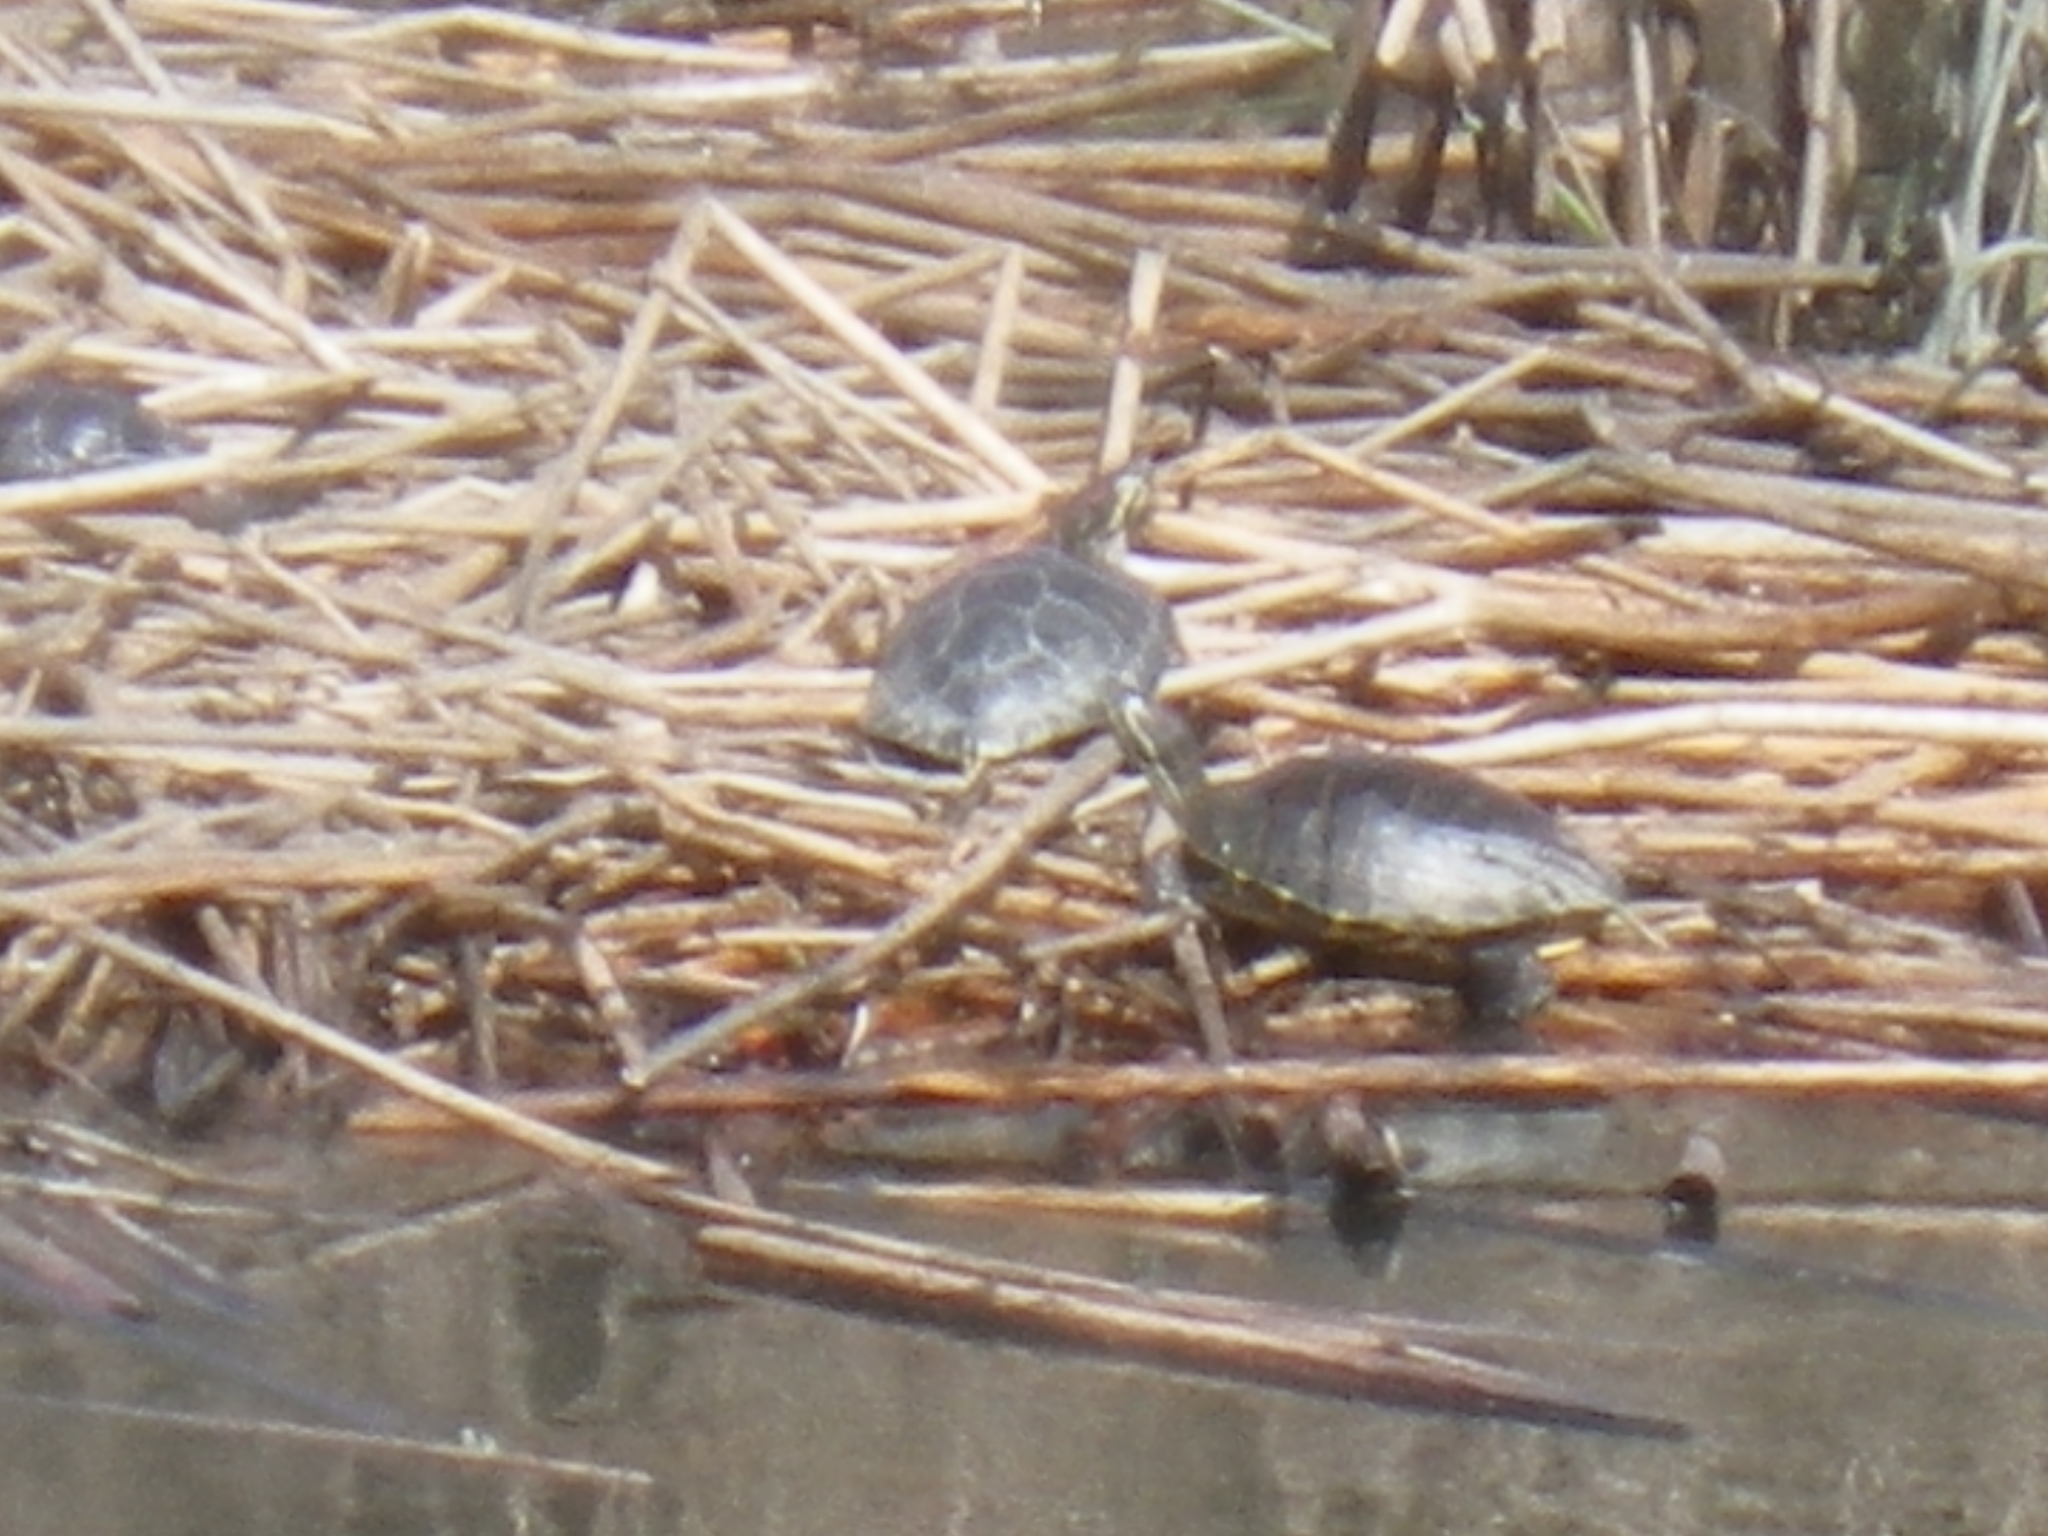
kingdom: Animalia
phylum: Chordata
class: Testudines
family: Emydidae
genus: Trachemys
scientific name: Trachemys scripta
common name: Slider
